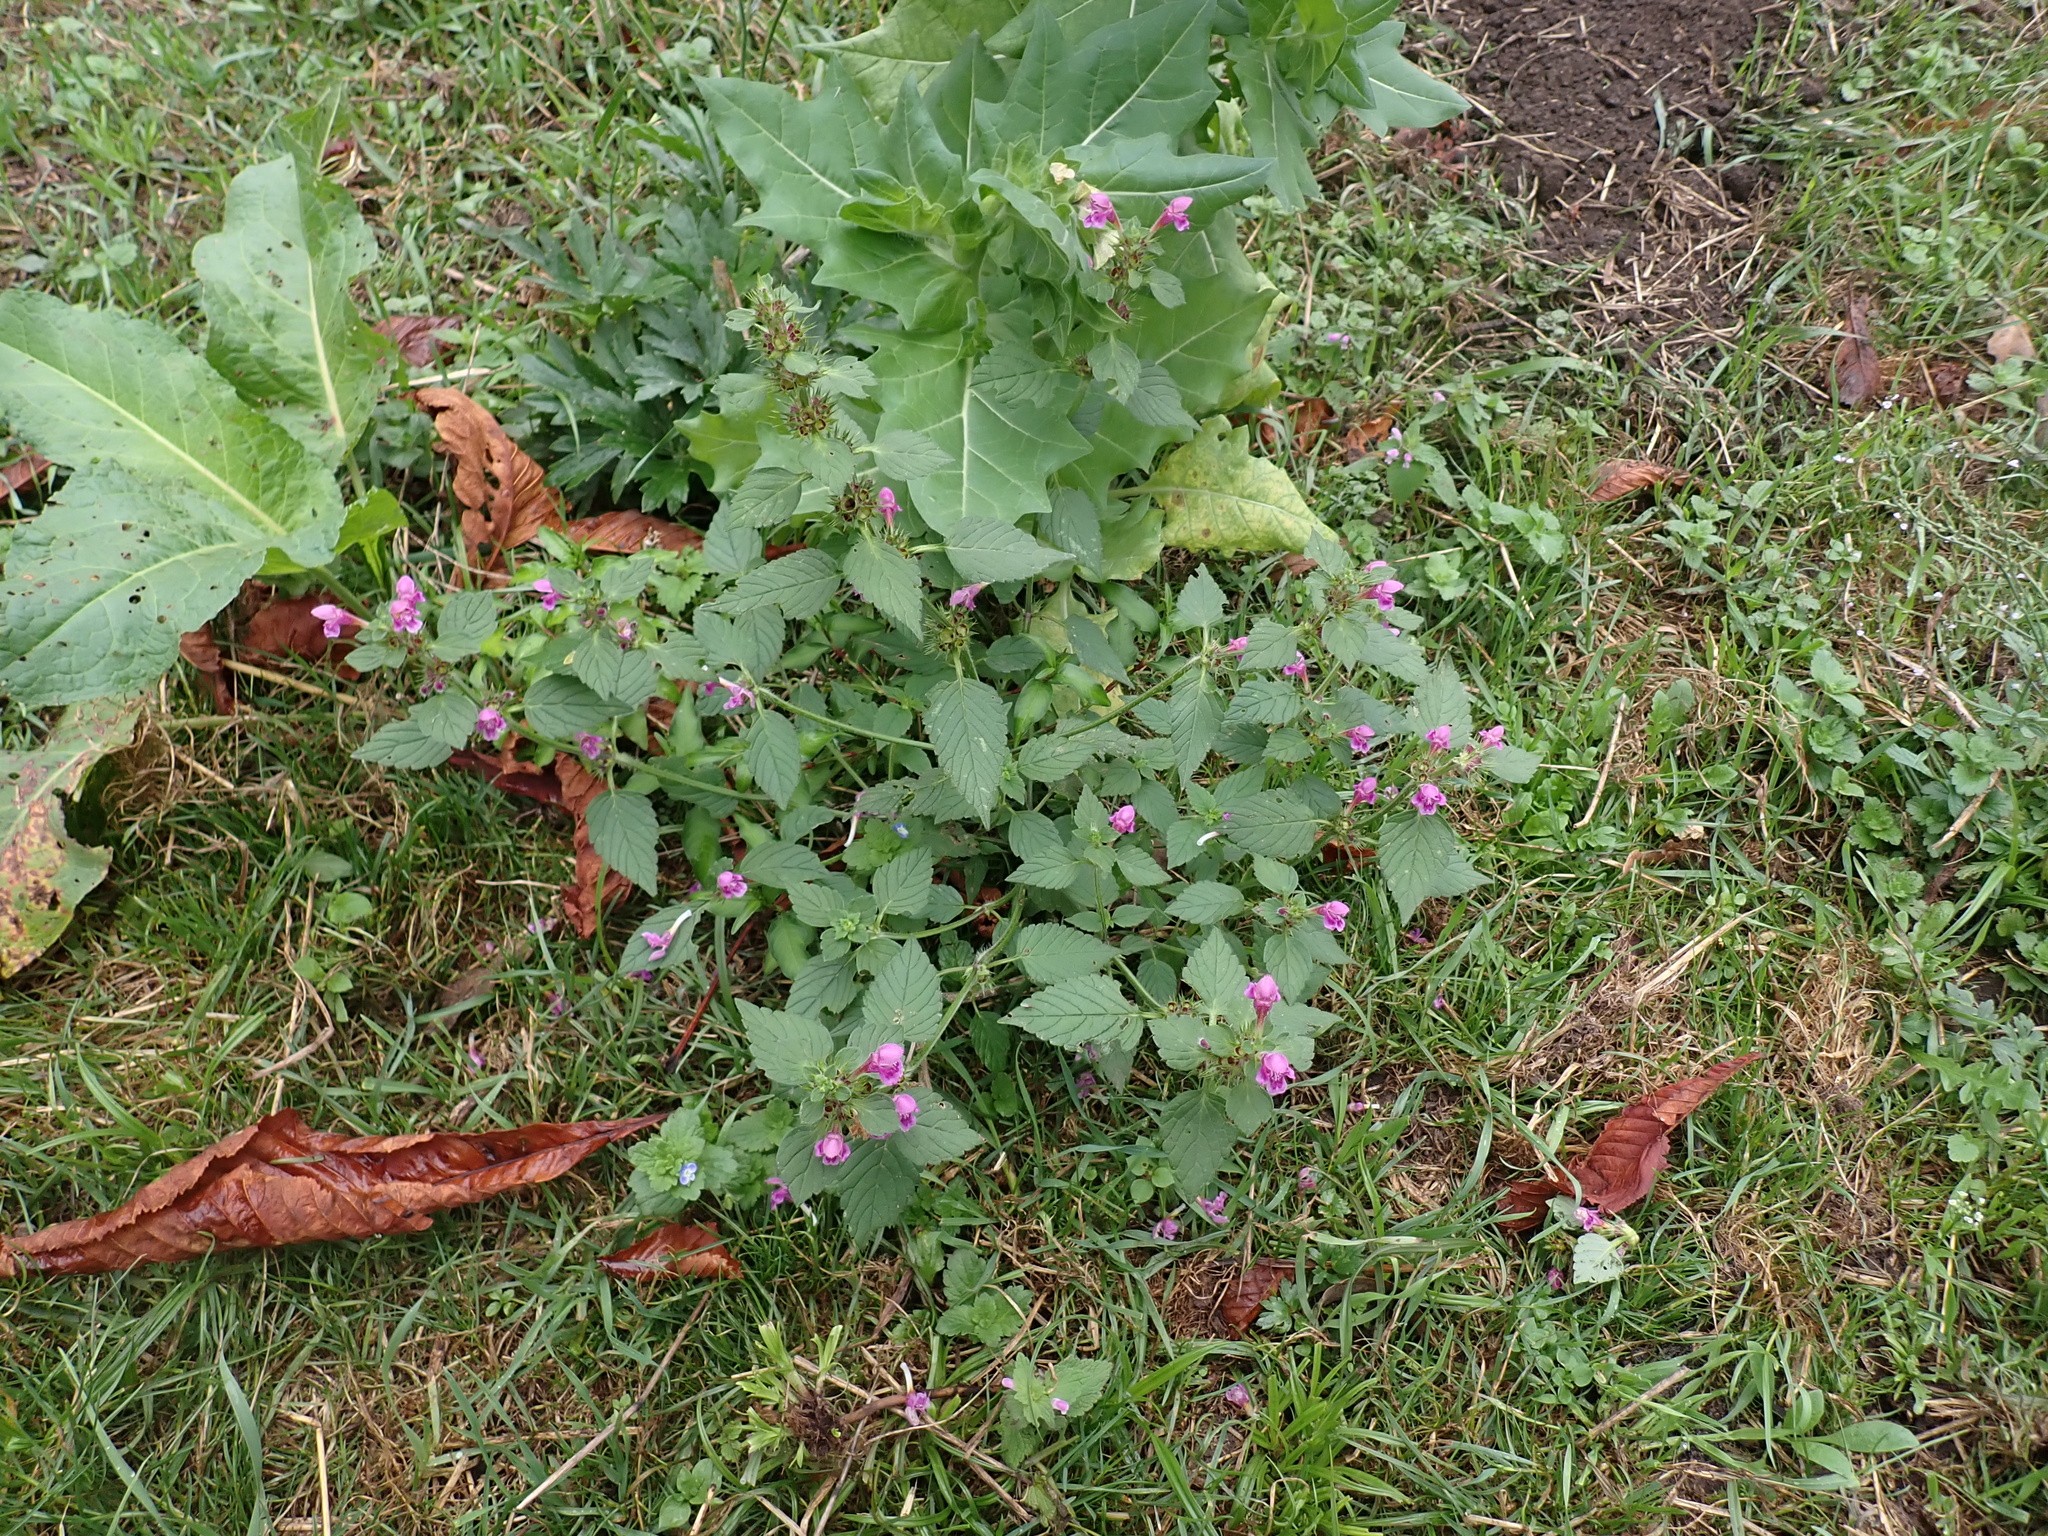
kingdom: Plantae
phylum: Tracheophyta
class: Magnoliopsida
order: Lamiales
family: Lamiaceae
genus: Galeopsis
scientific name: Galeopsis pubescens
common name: Downy hemp-nettle
